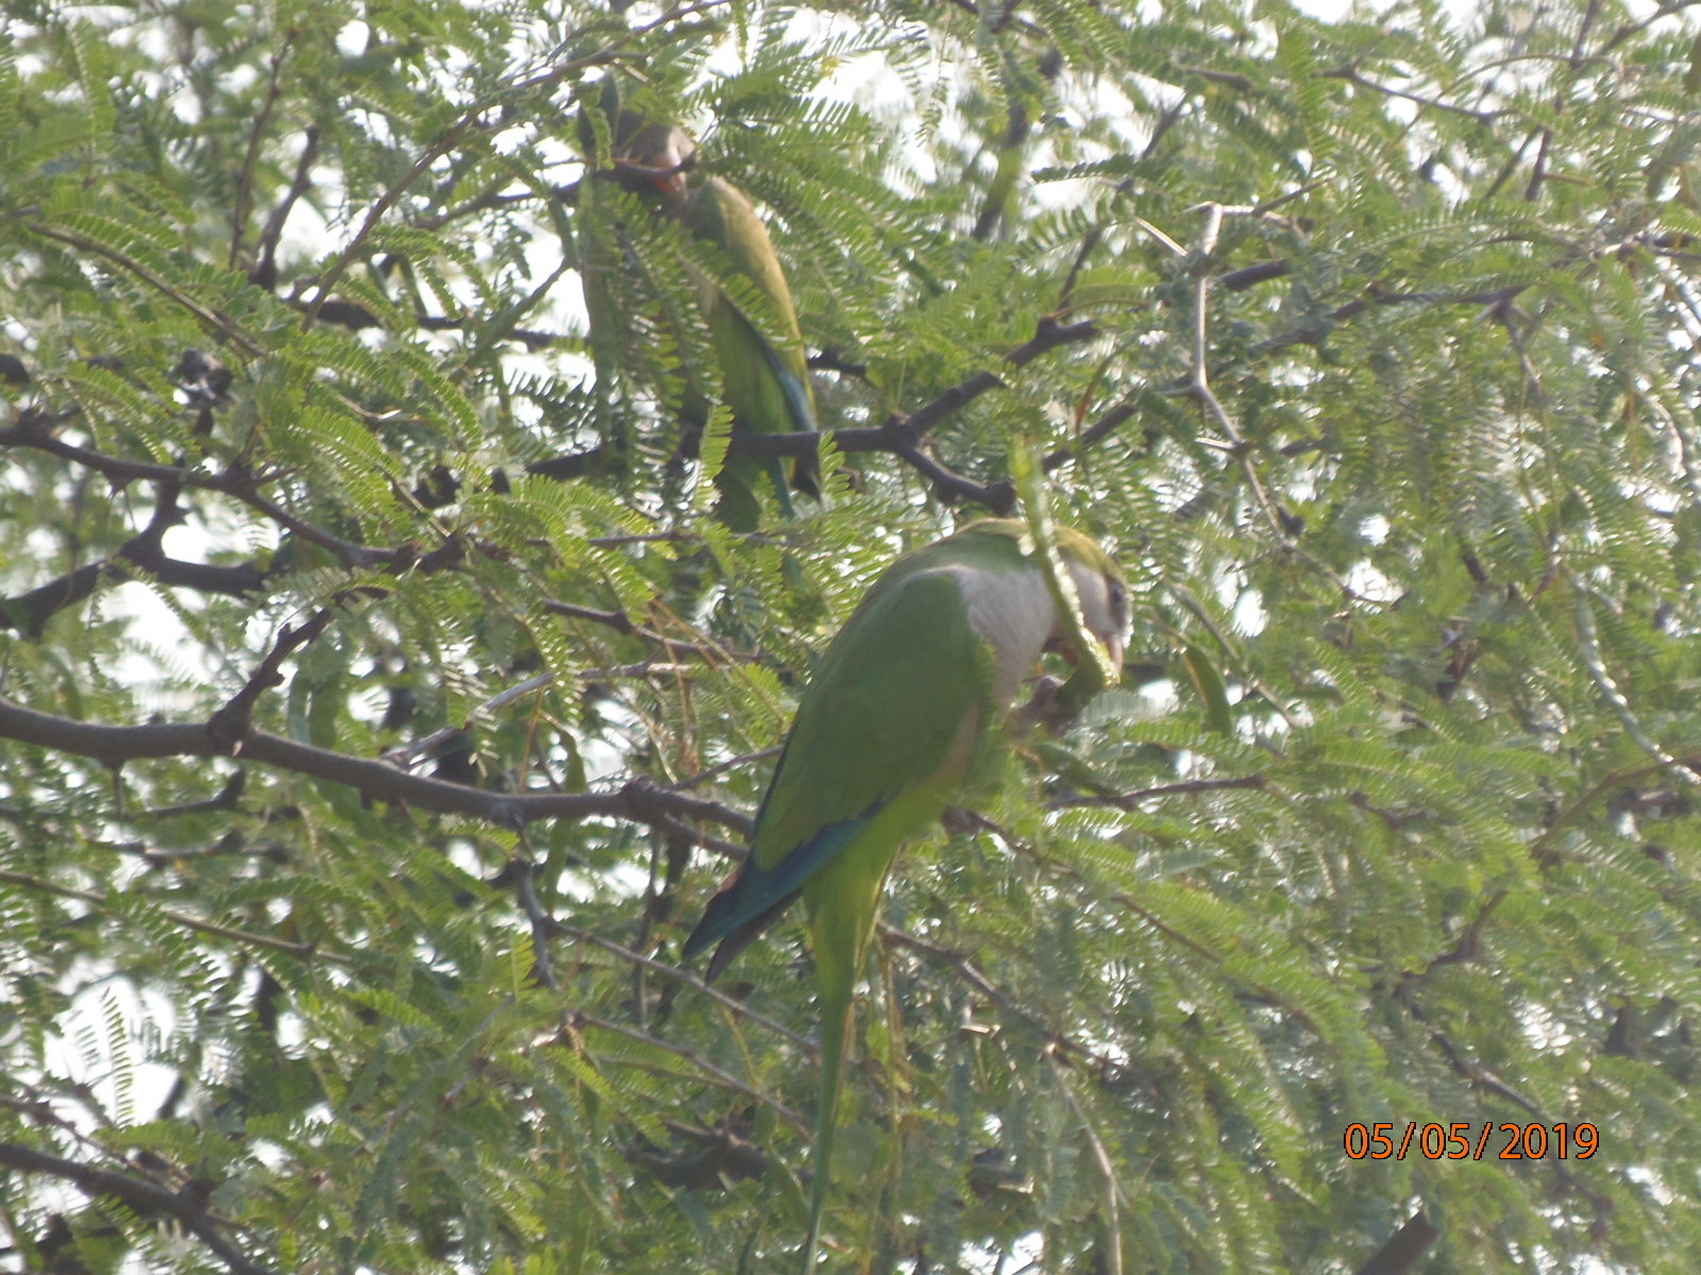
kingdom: Animalia
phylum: Chordata
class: Aves
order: Psittaciformes
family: Psittacidae
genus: Myiopsitta
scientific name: Myiopsitta monachus
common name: Monk parakeet
